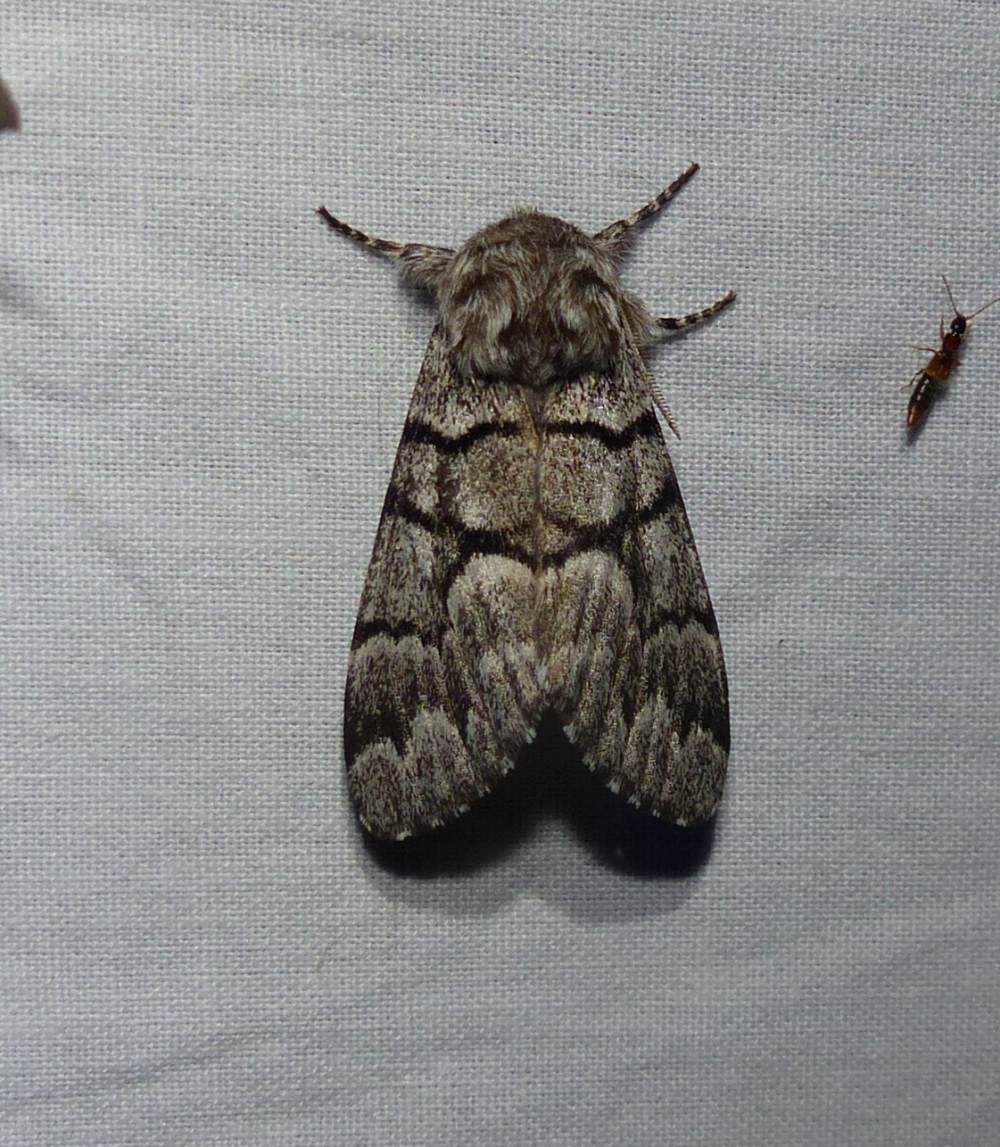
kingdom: Animalia
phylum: Arthropoda
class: Insecta
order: Lepidoptera
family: Noctuidae
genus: Panthea
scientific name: Panthea furcilla
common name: Eastern panthea moth
